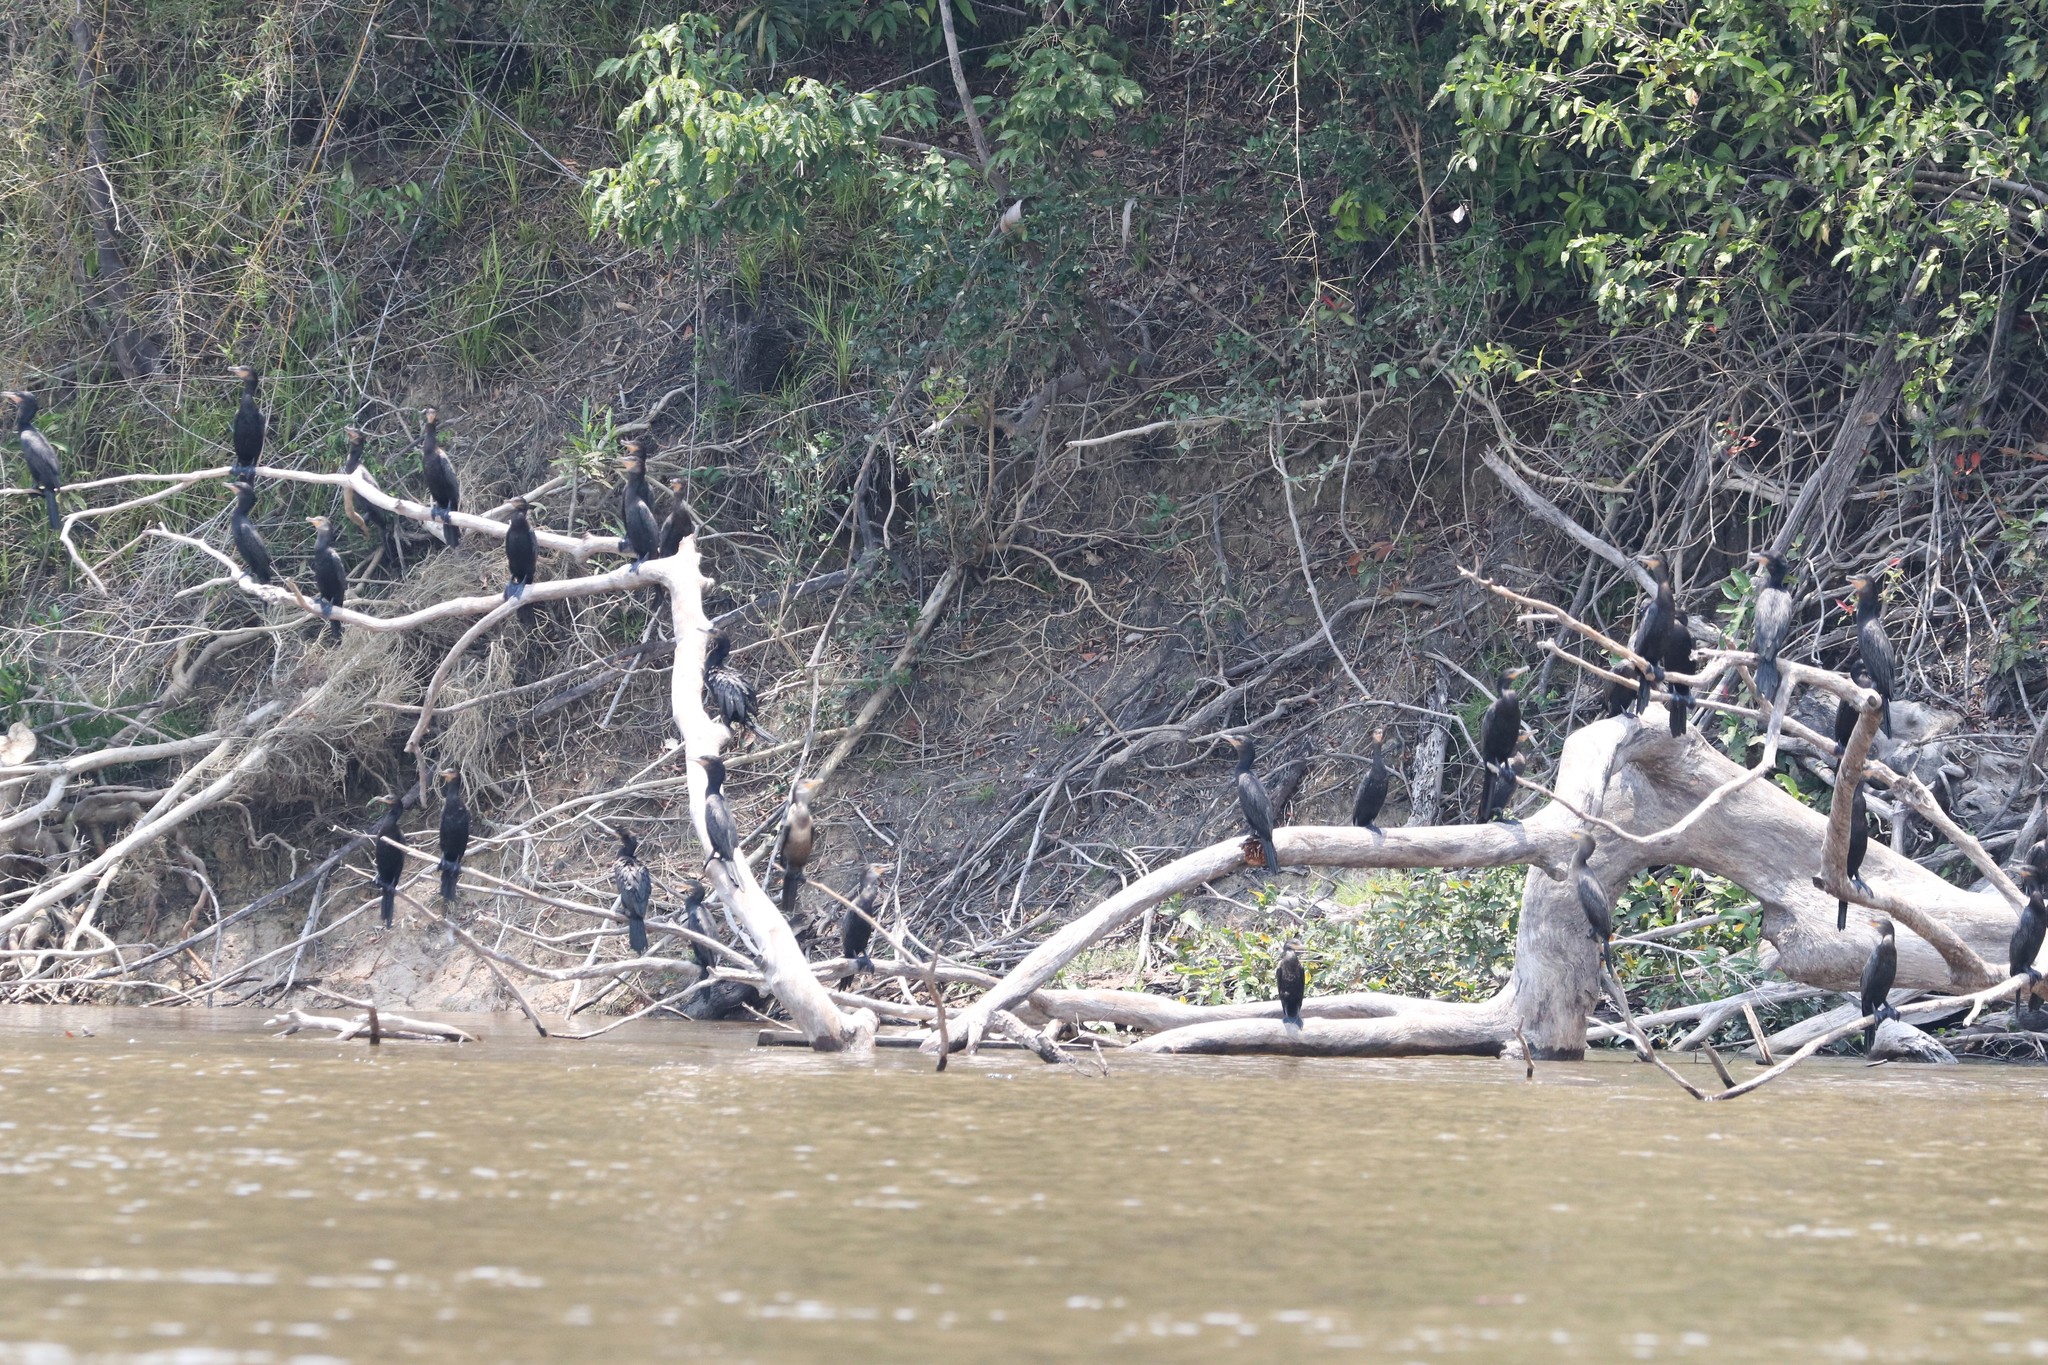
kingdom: Animalia
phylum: Chordata
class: Aves
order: Suliformes
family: Phalacrocoracidae
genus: Phalacrocorax
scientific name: Phalacrocorax brasilianus
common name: Neotropic cormorant
